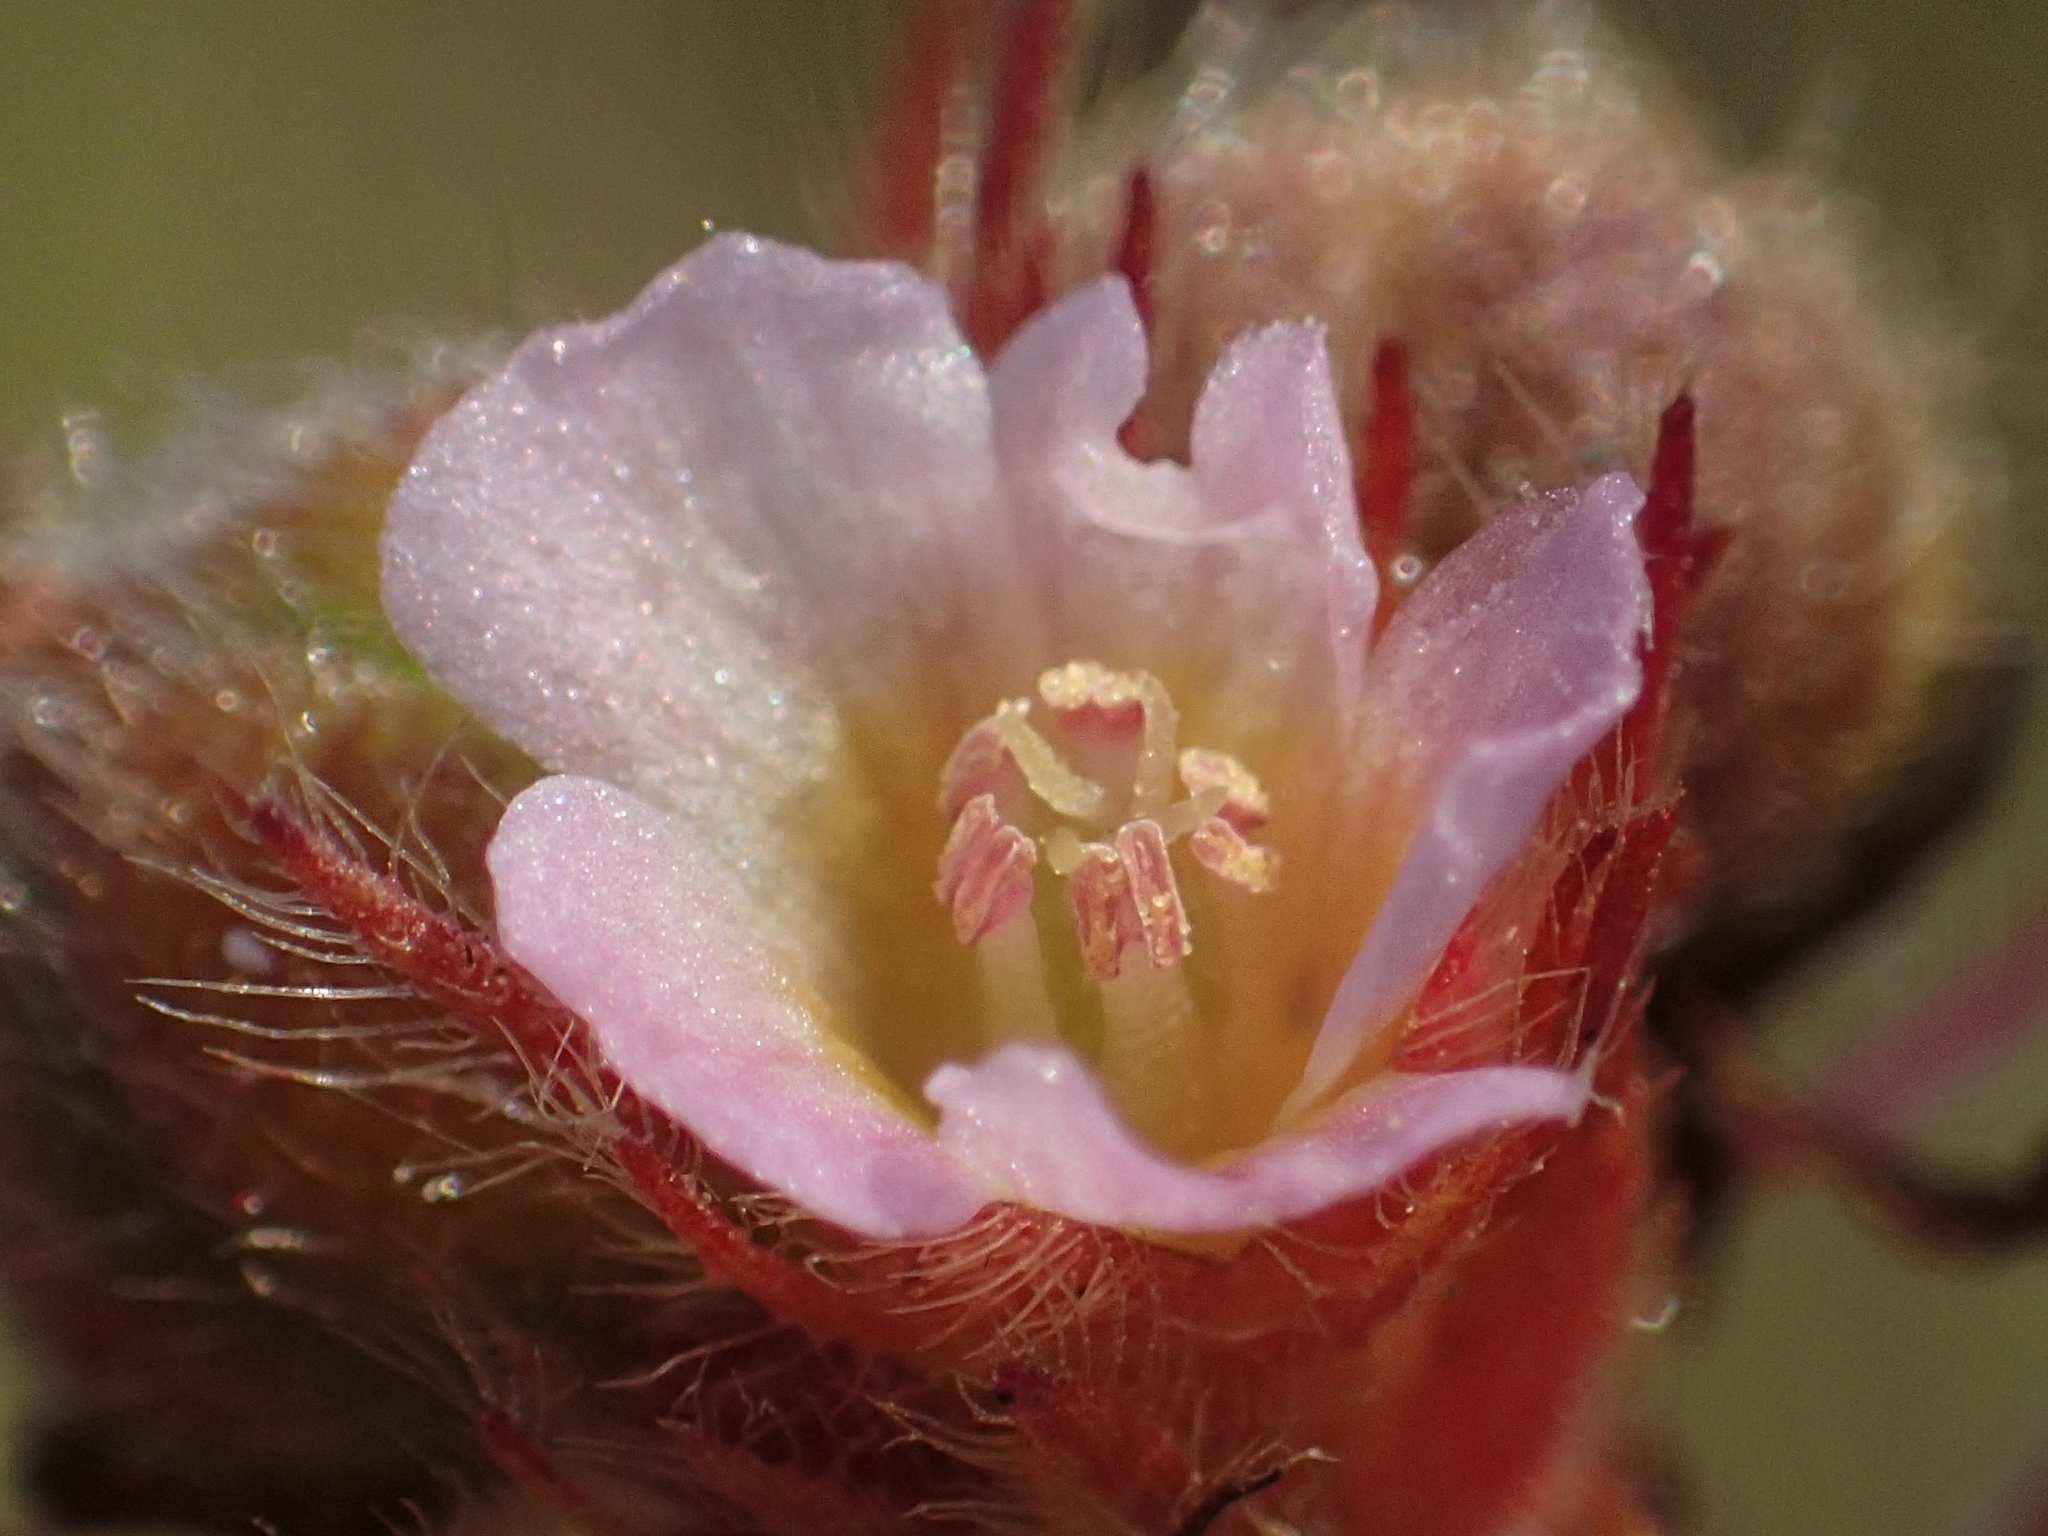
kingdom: Plantae
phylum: Tracheophyta
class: Magnoliopsida
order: Malvales
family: Malvaceae
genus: Melochia
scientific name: Melochia corchorifolia
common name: Chocolateweed
